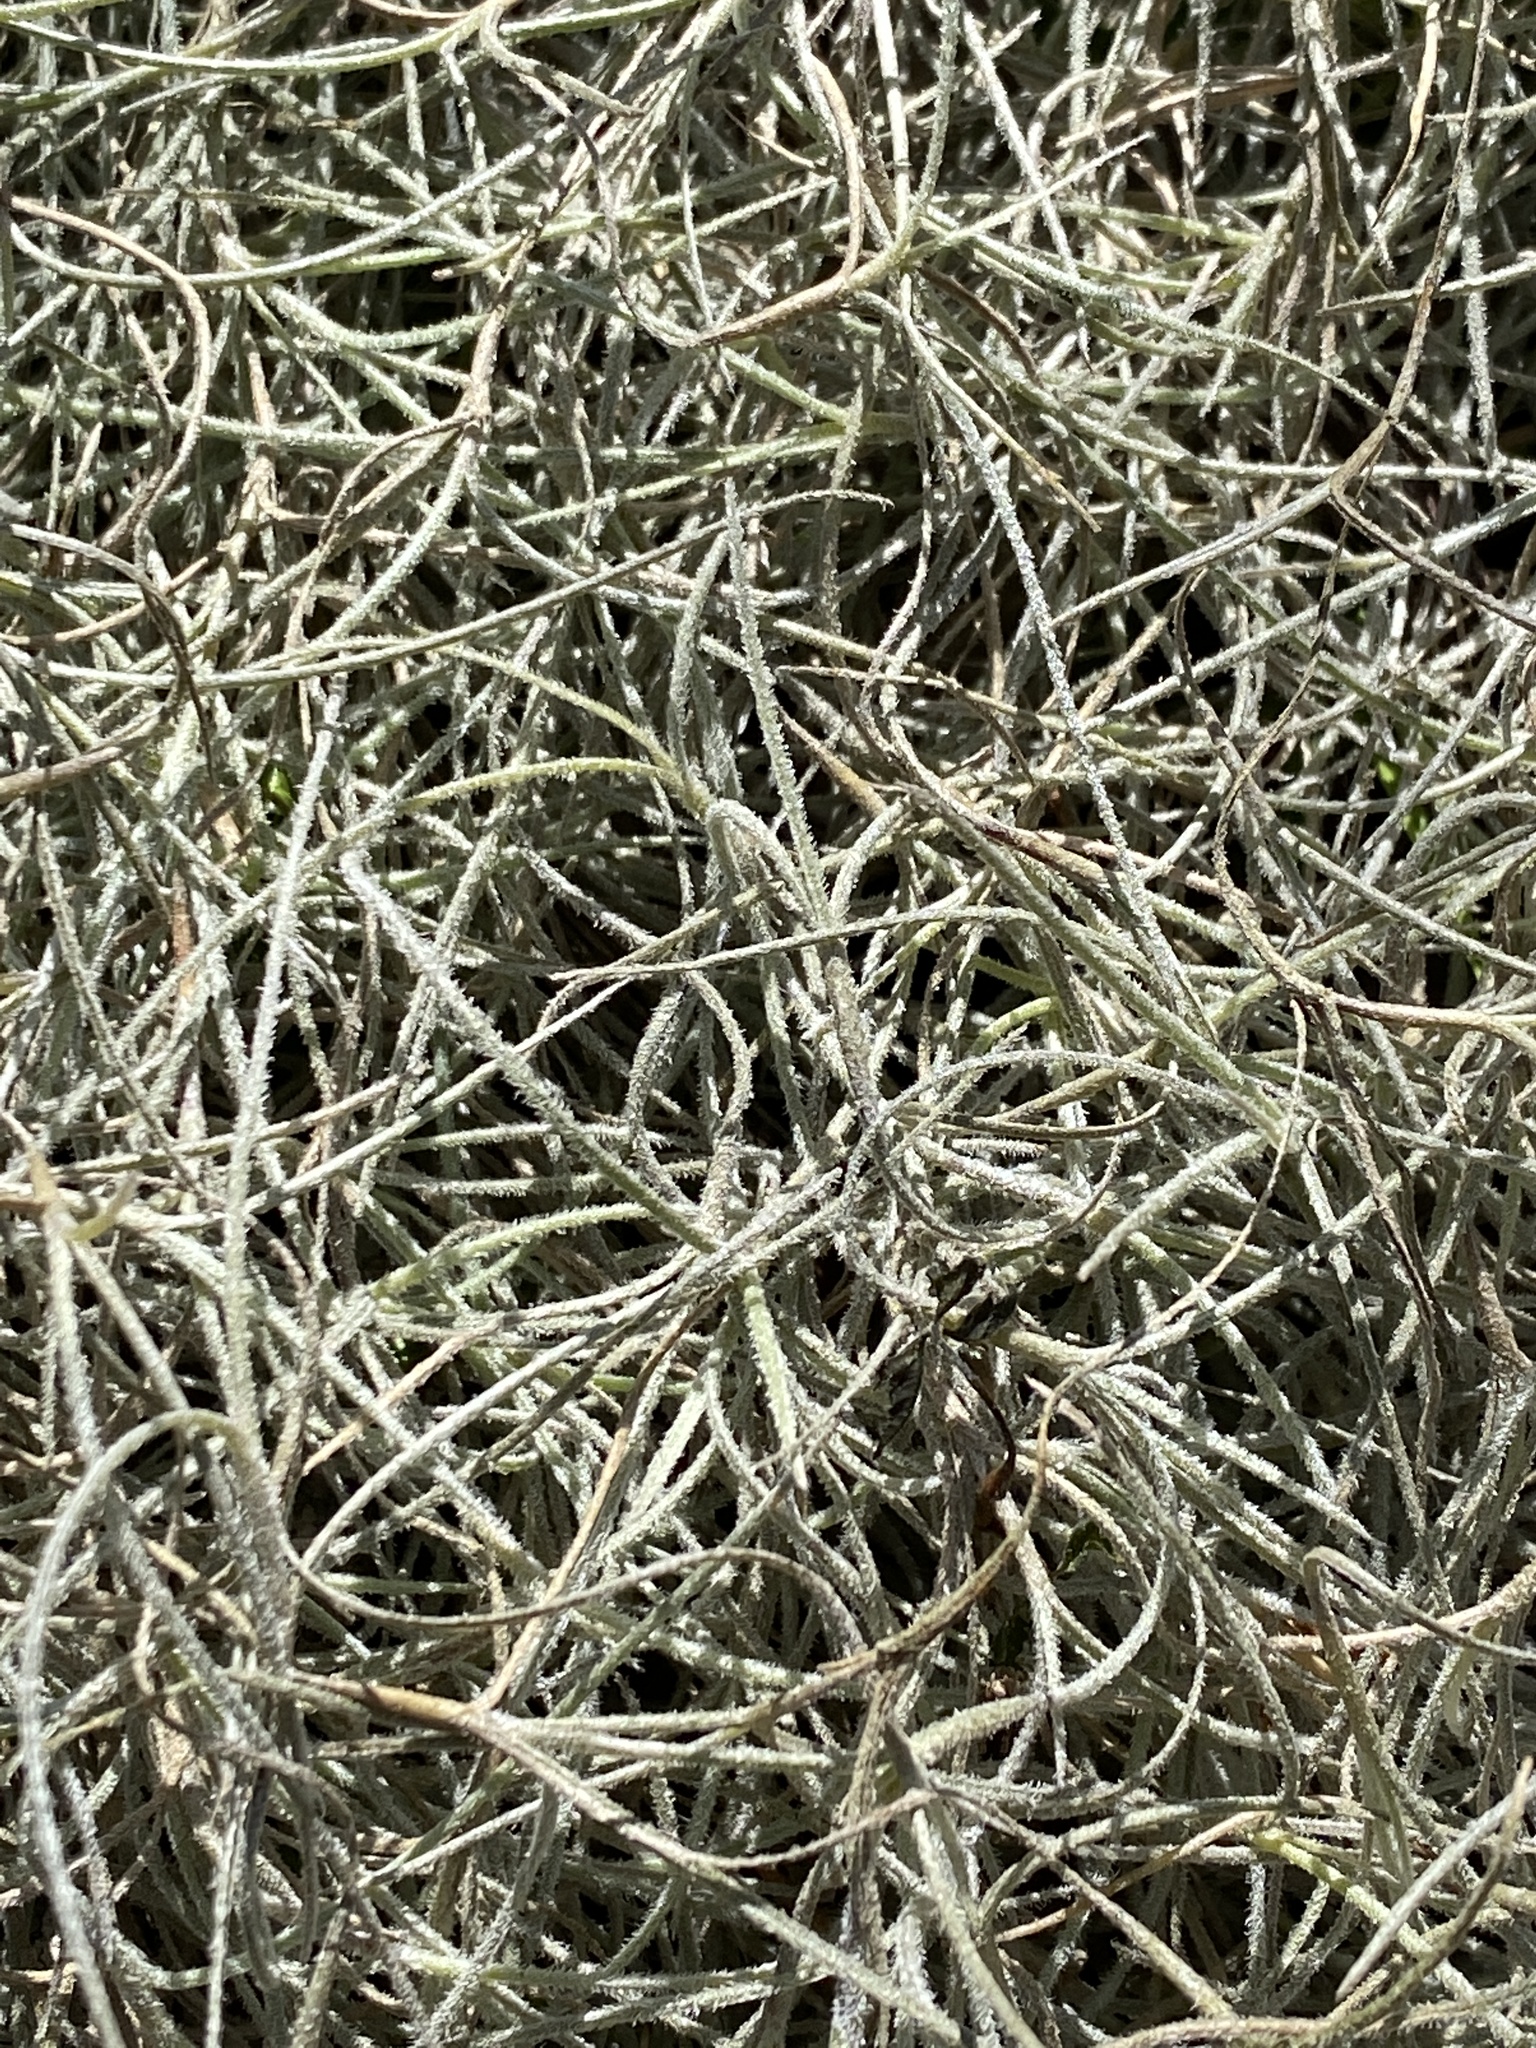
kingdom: Plantae
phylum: Tracheophyta
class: Liliopsida
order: Poales
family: Bromeliaceae
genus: Tillandsia
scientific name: Tillandsia usneoides
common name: Spanish moss
